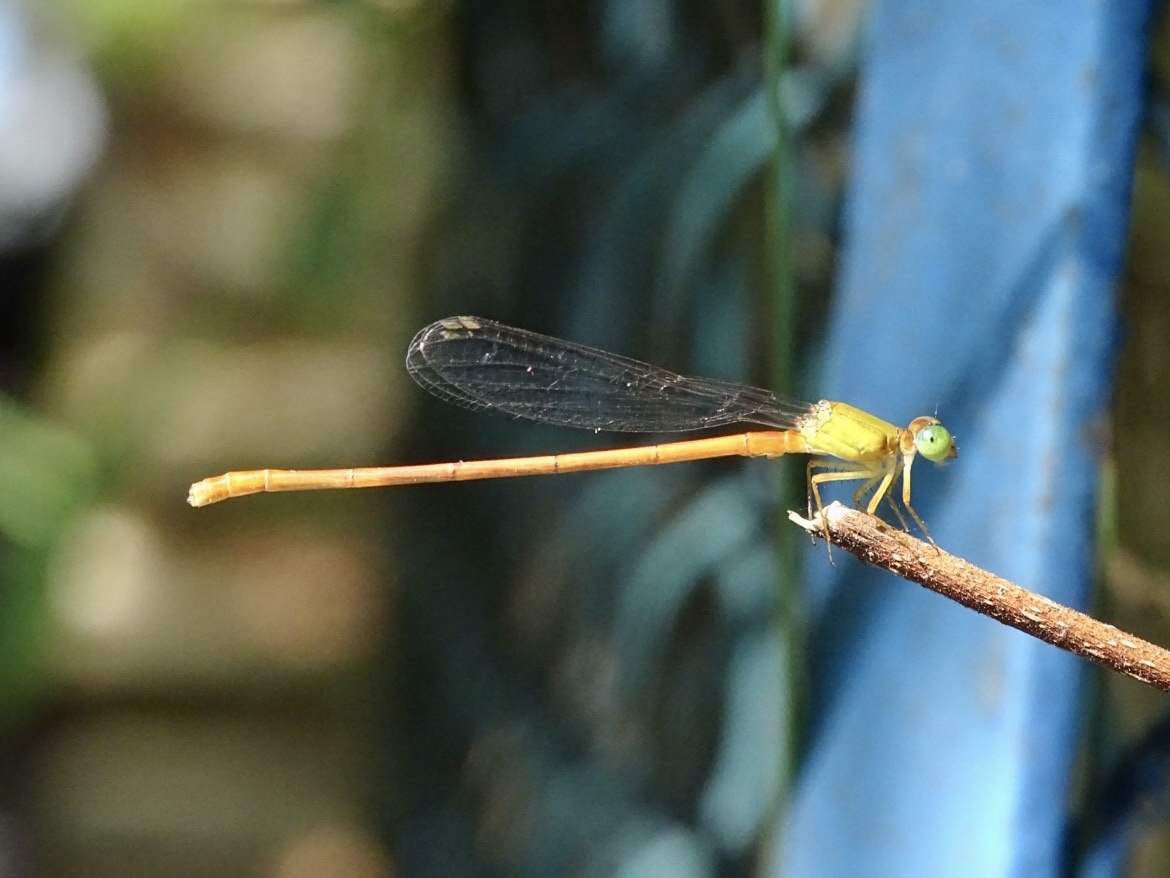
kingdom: Animalia
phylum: Arthropoda
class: Insecta
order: Odonata
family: Coenagrionidae
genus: Ceriagrion
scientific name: Ceriagrion auranticum
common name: Orange-tailed sprite
